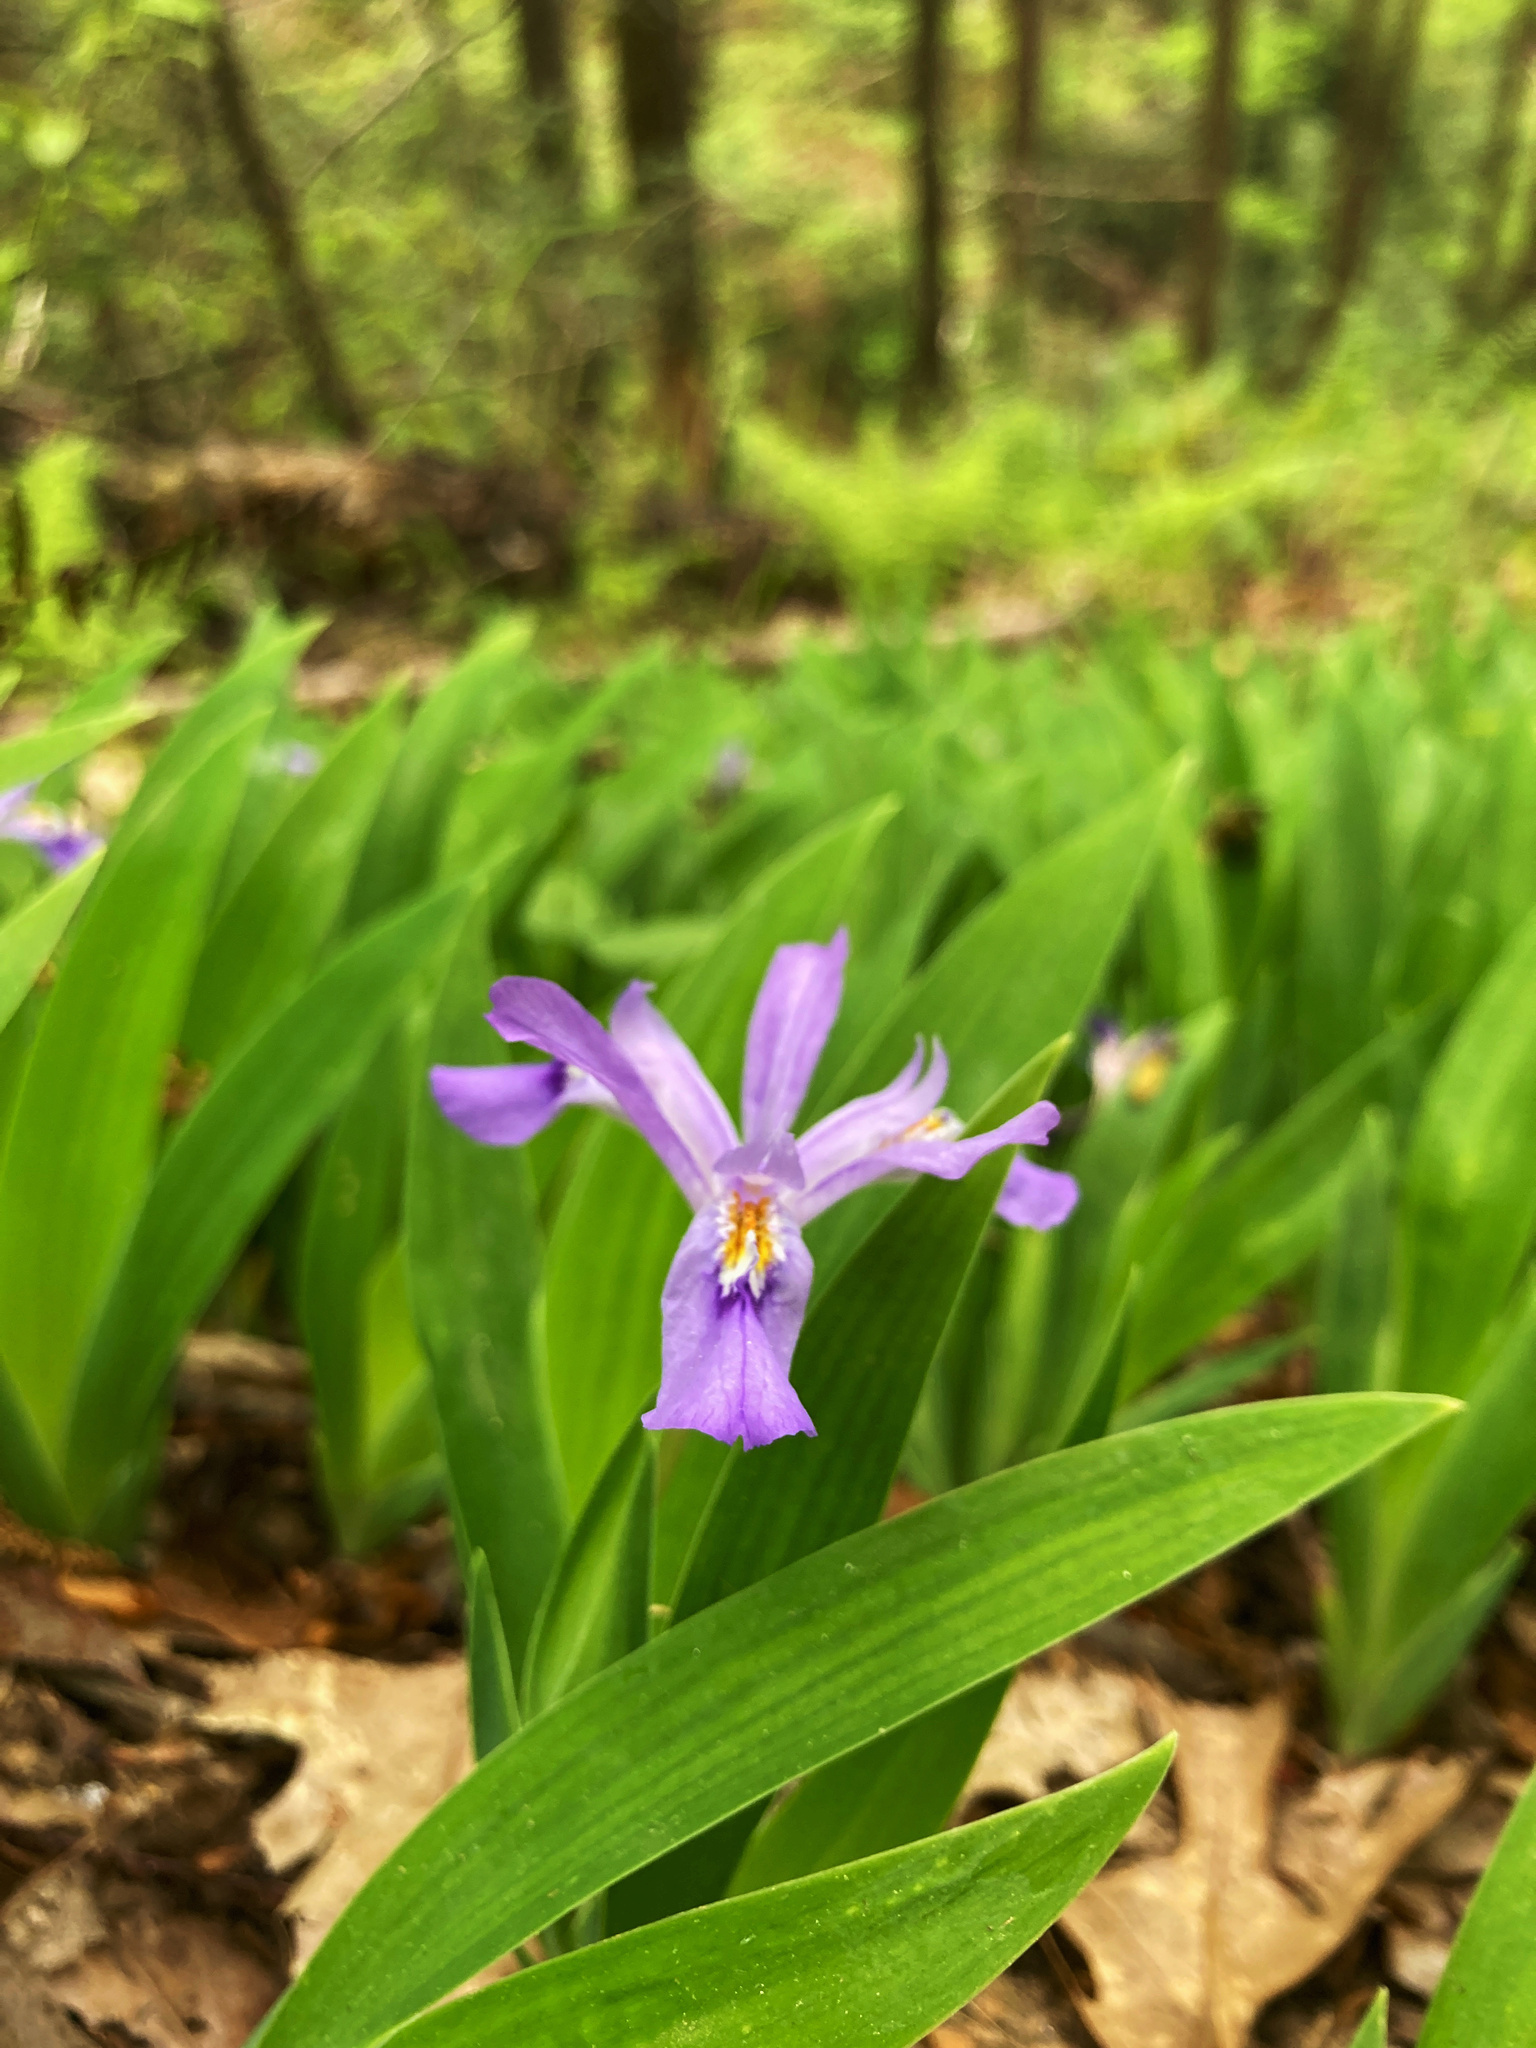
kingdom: Plantae
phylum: Tracheophyta
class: Liliopsida
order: Asparagales
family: Iridaceae
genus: Iris
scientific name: Iris cristata
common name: Crested iris
